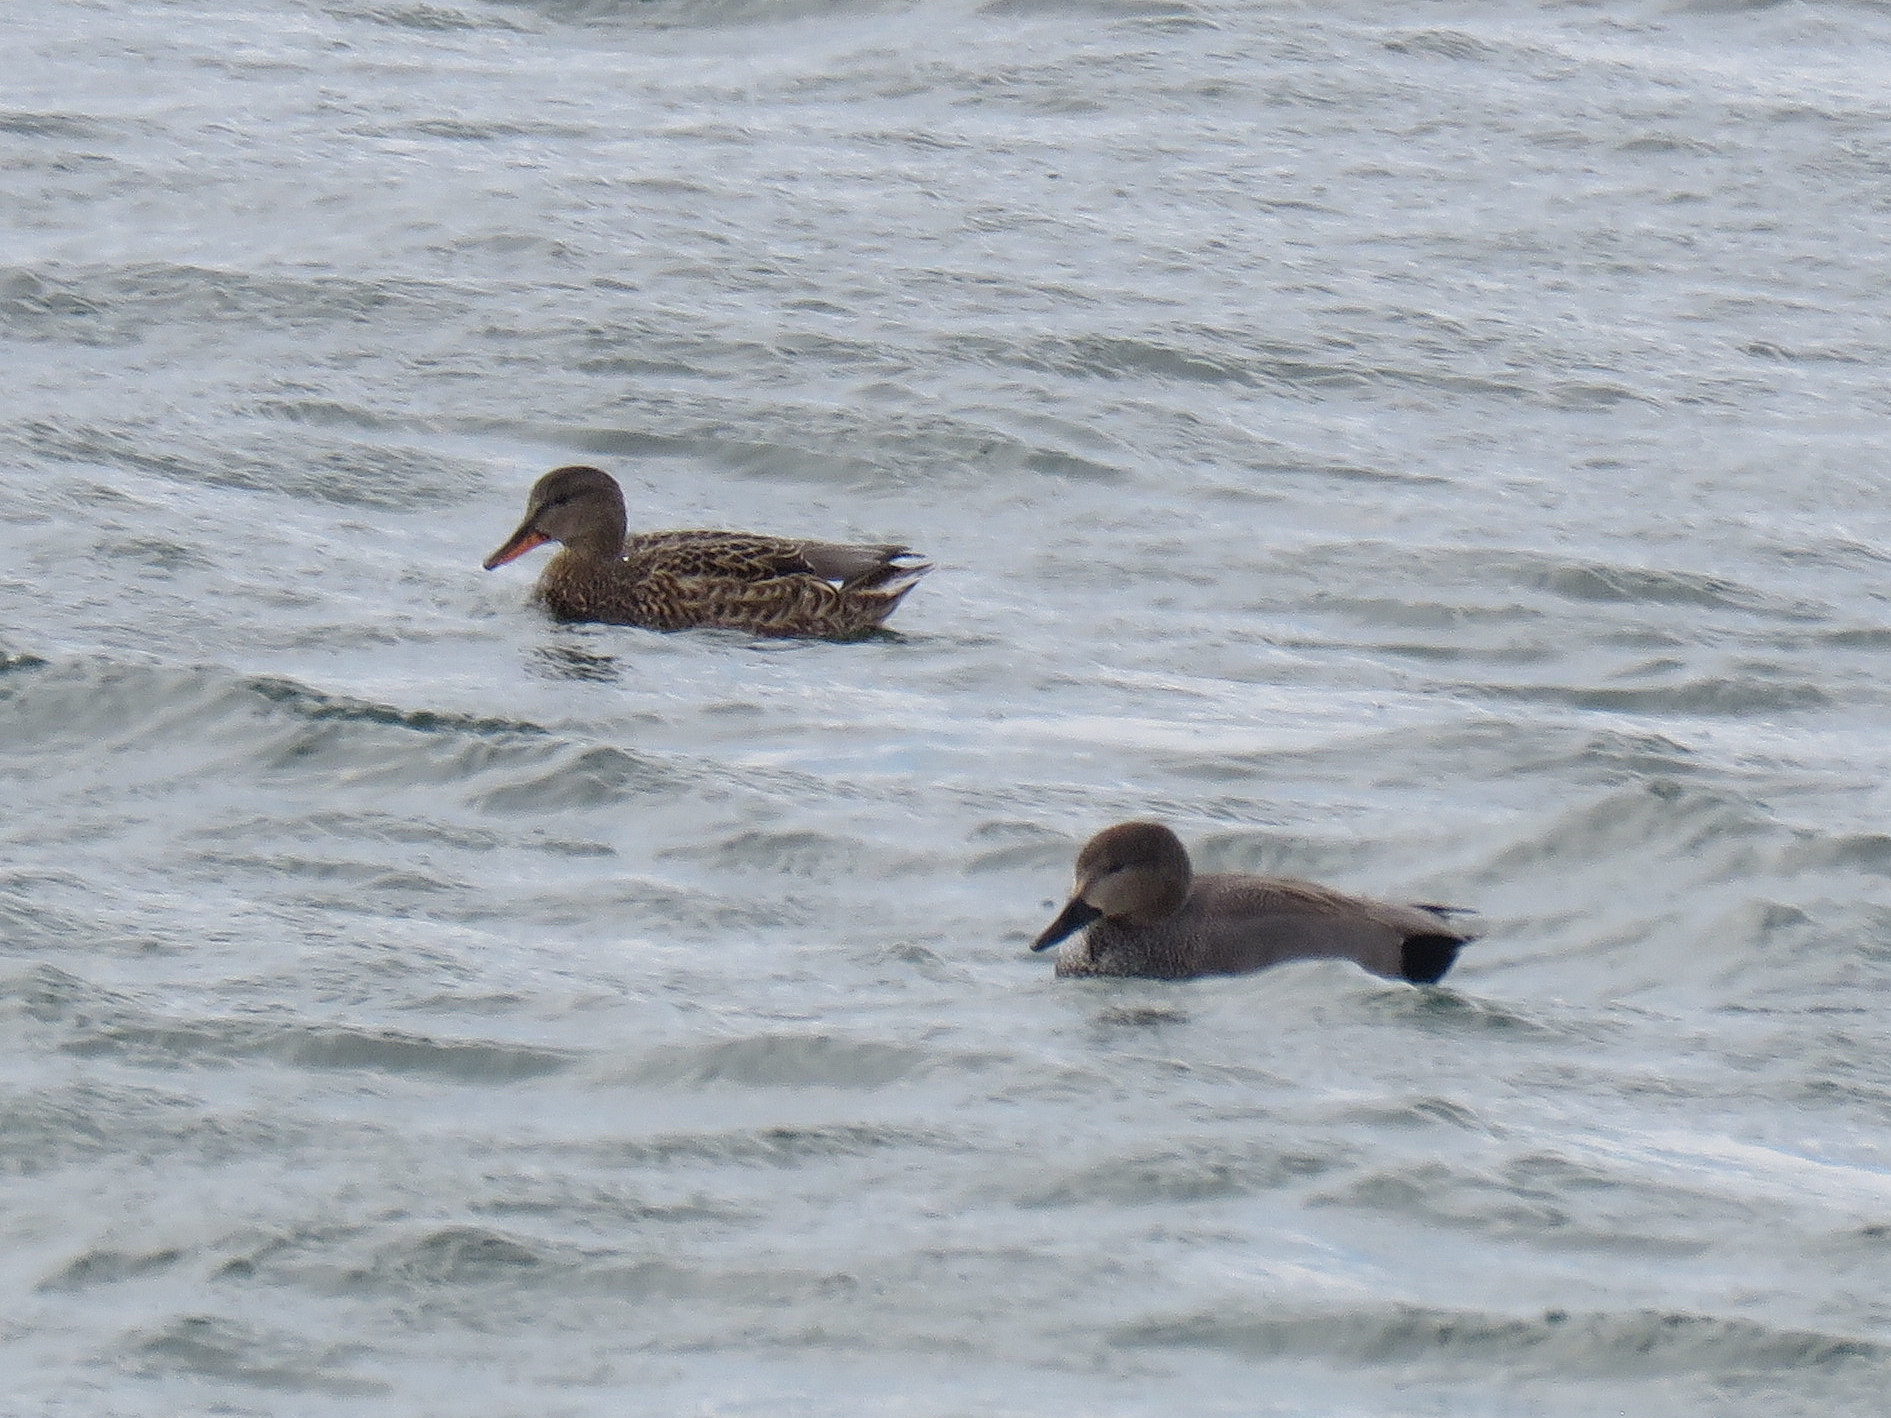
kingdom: Animalia
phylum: Chordata
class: Aves
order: Anseriformes
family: Anatidae
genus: Mareca
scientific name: Mareca strepera
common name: Gadwall
